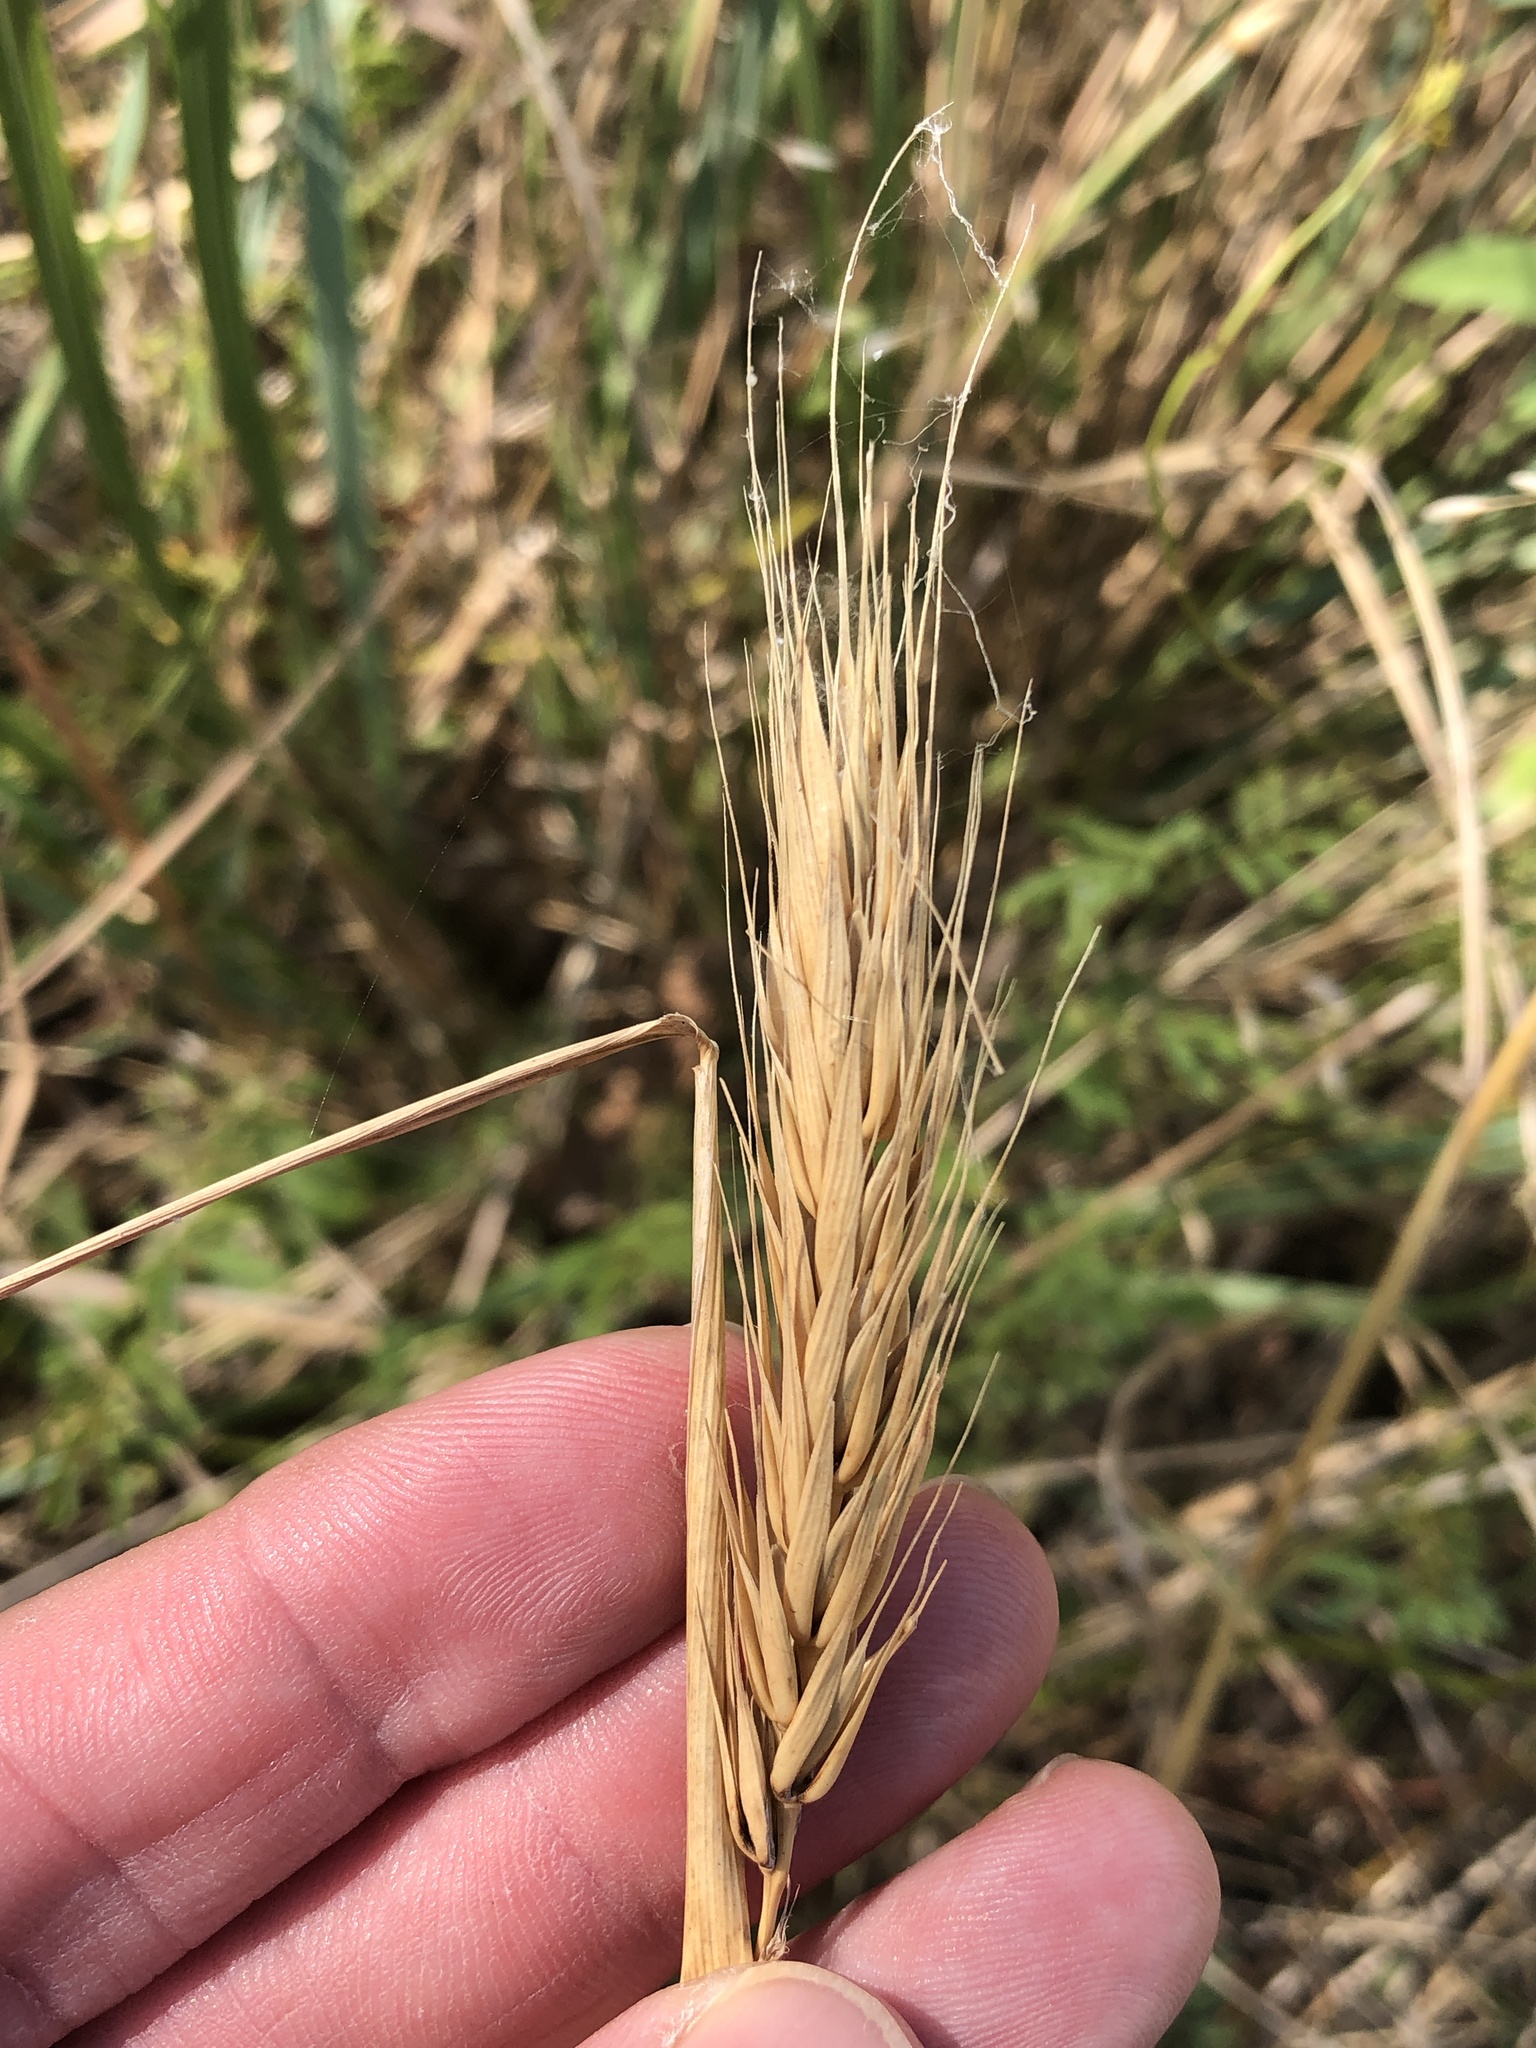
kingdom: Plantae
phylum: Tracheophyta
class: Liliopsida
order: Poales
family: Poaceae
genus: Elymus
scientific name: Elymus virginicus
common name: Common eastern wildrye
